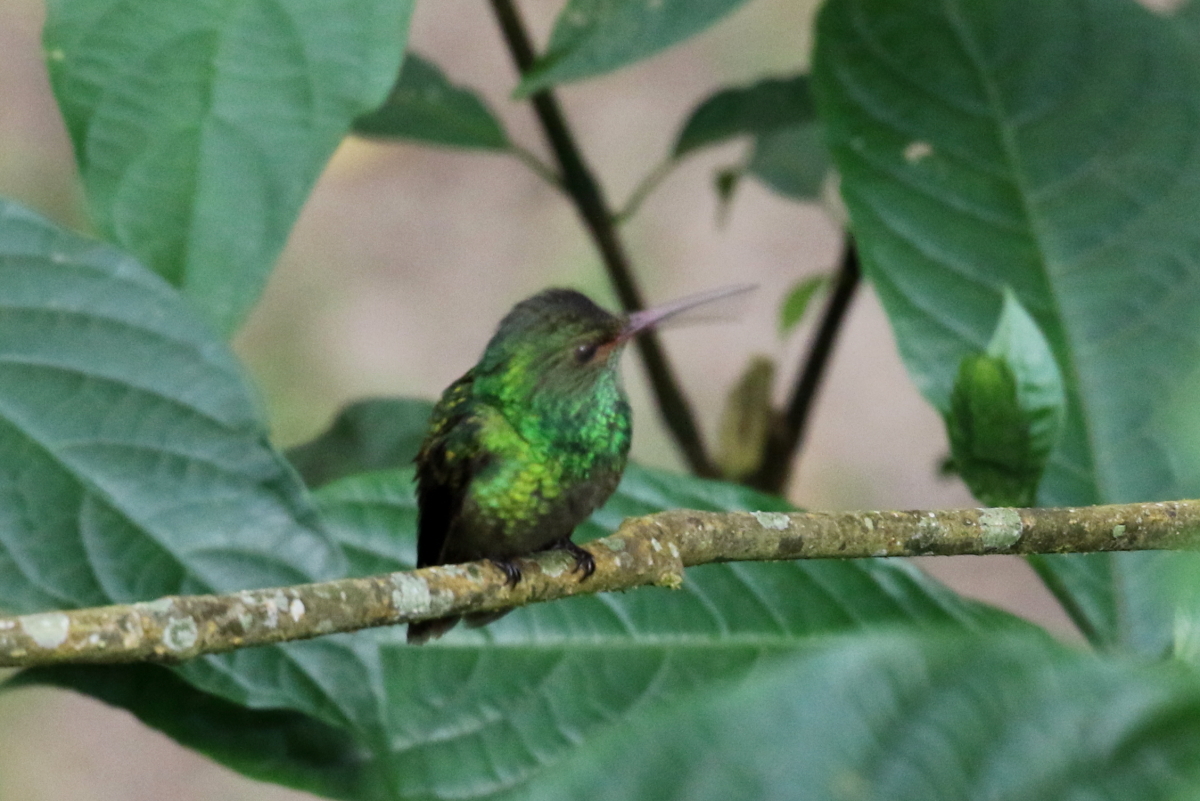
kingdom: Animalia
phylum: Chordata
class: Aves
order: Apodiformes
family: Trochilidae
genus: Amazilia
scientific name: Amazilia tzacatl
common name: Rufous-tailed hummingbird
